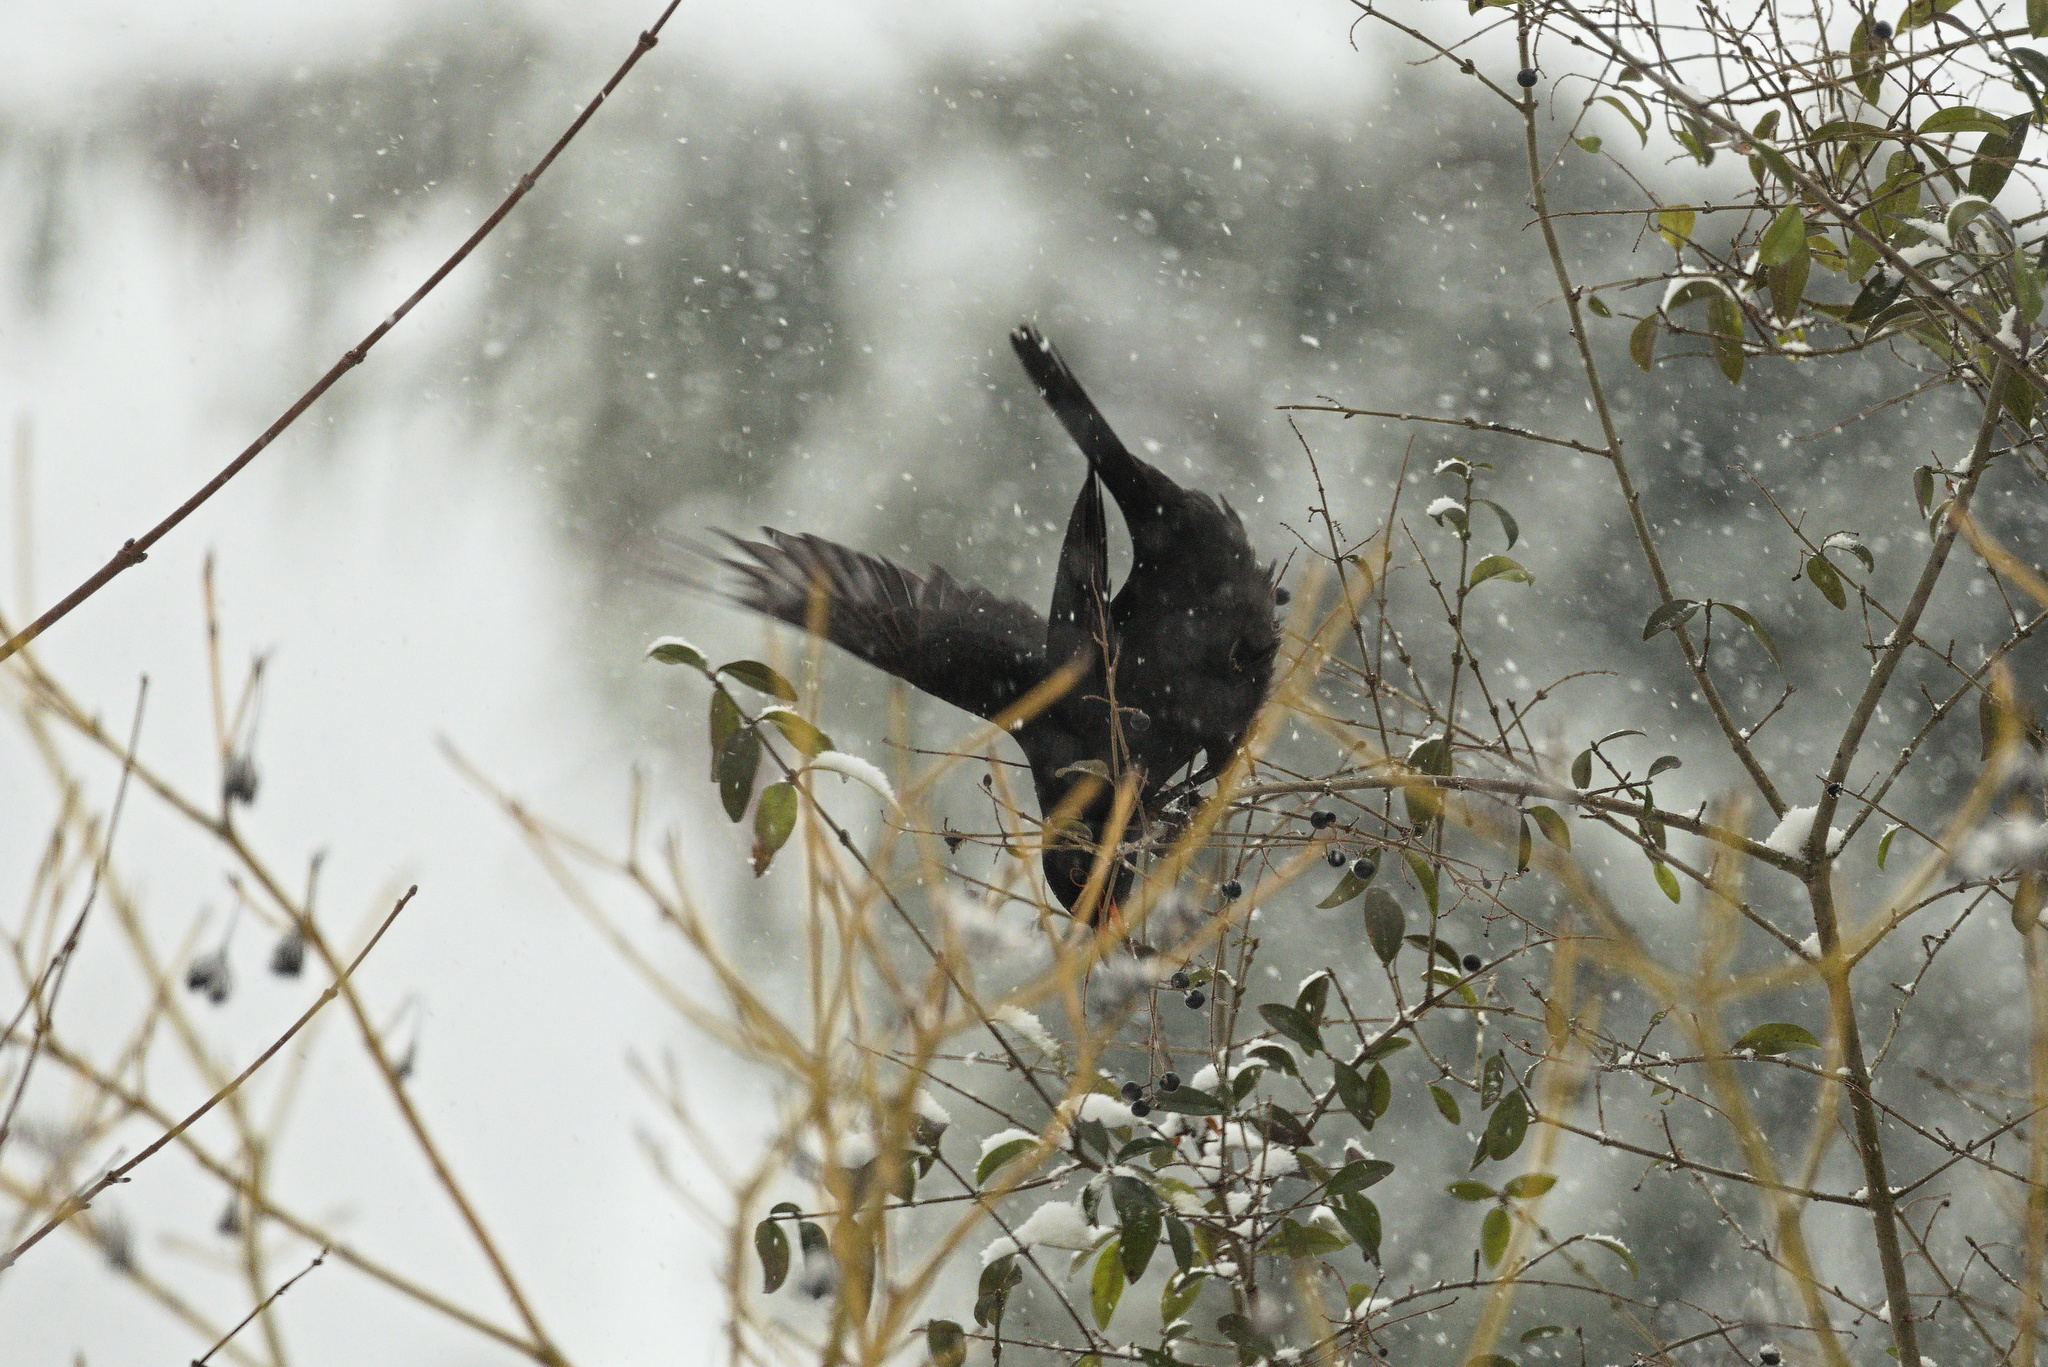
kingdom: Animalia
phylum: Chordata
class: Aves
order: Passeriformes
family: Turdidae
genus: Turdus
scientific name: Turdus merula
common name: Common blackbird
